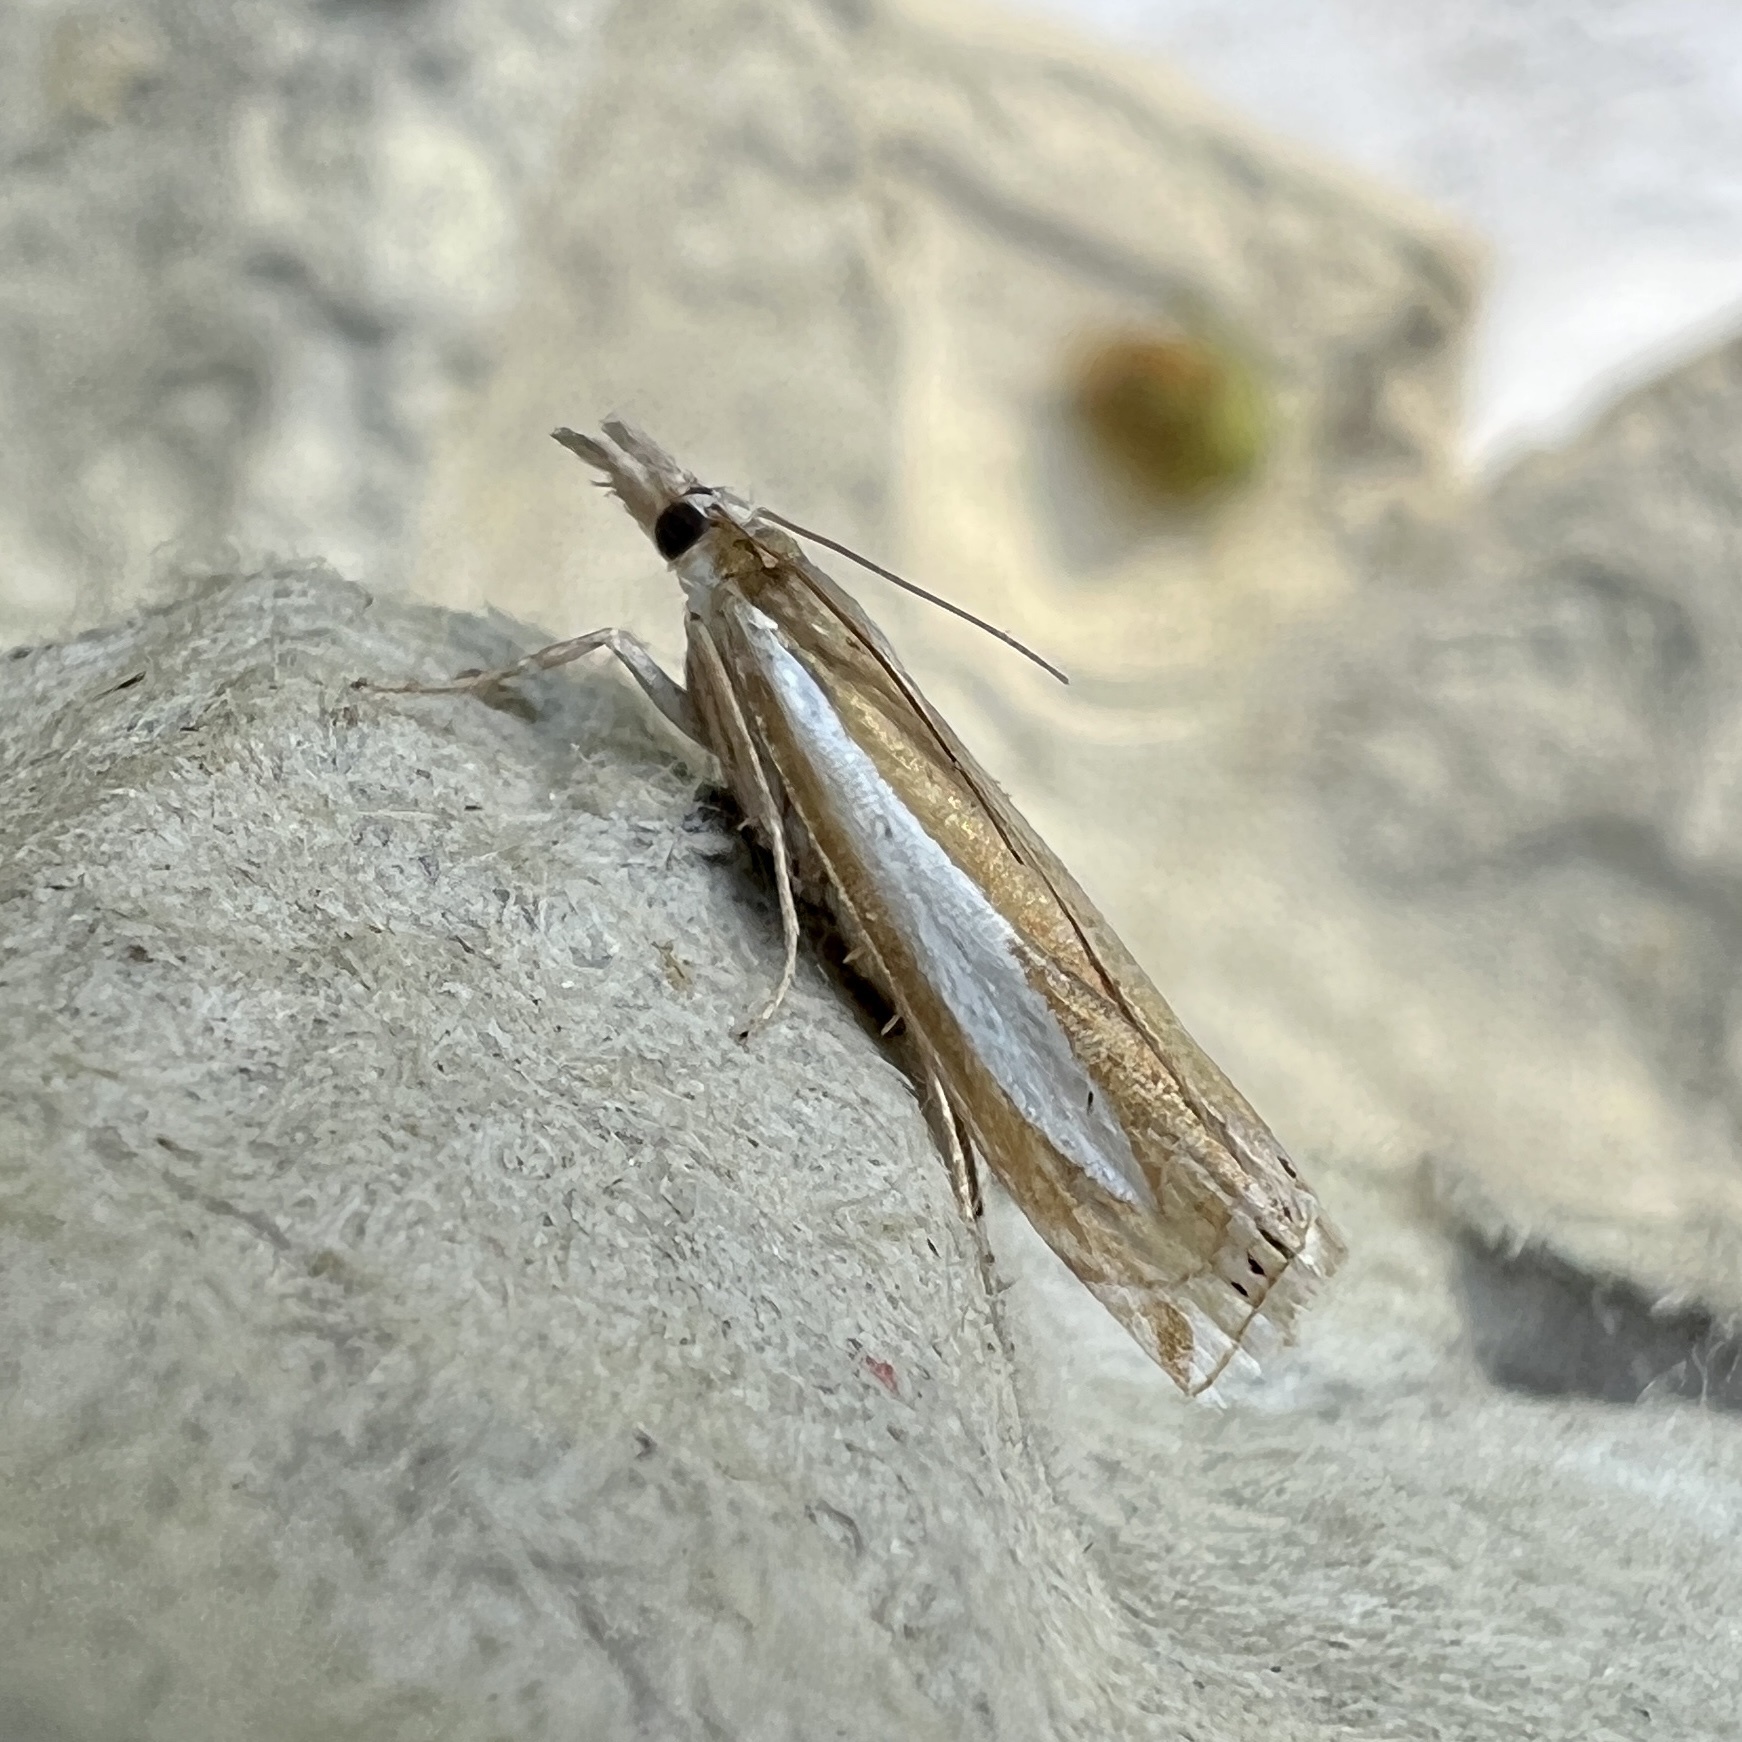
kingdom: Animalia
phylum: Arthropoda
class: Insecta
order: Lepidoptera
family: Crambidae
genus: Crambus
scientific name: Crambus praefectellus
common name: Common grass-veneer
